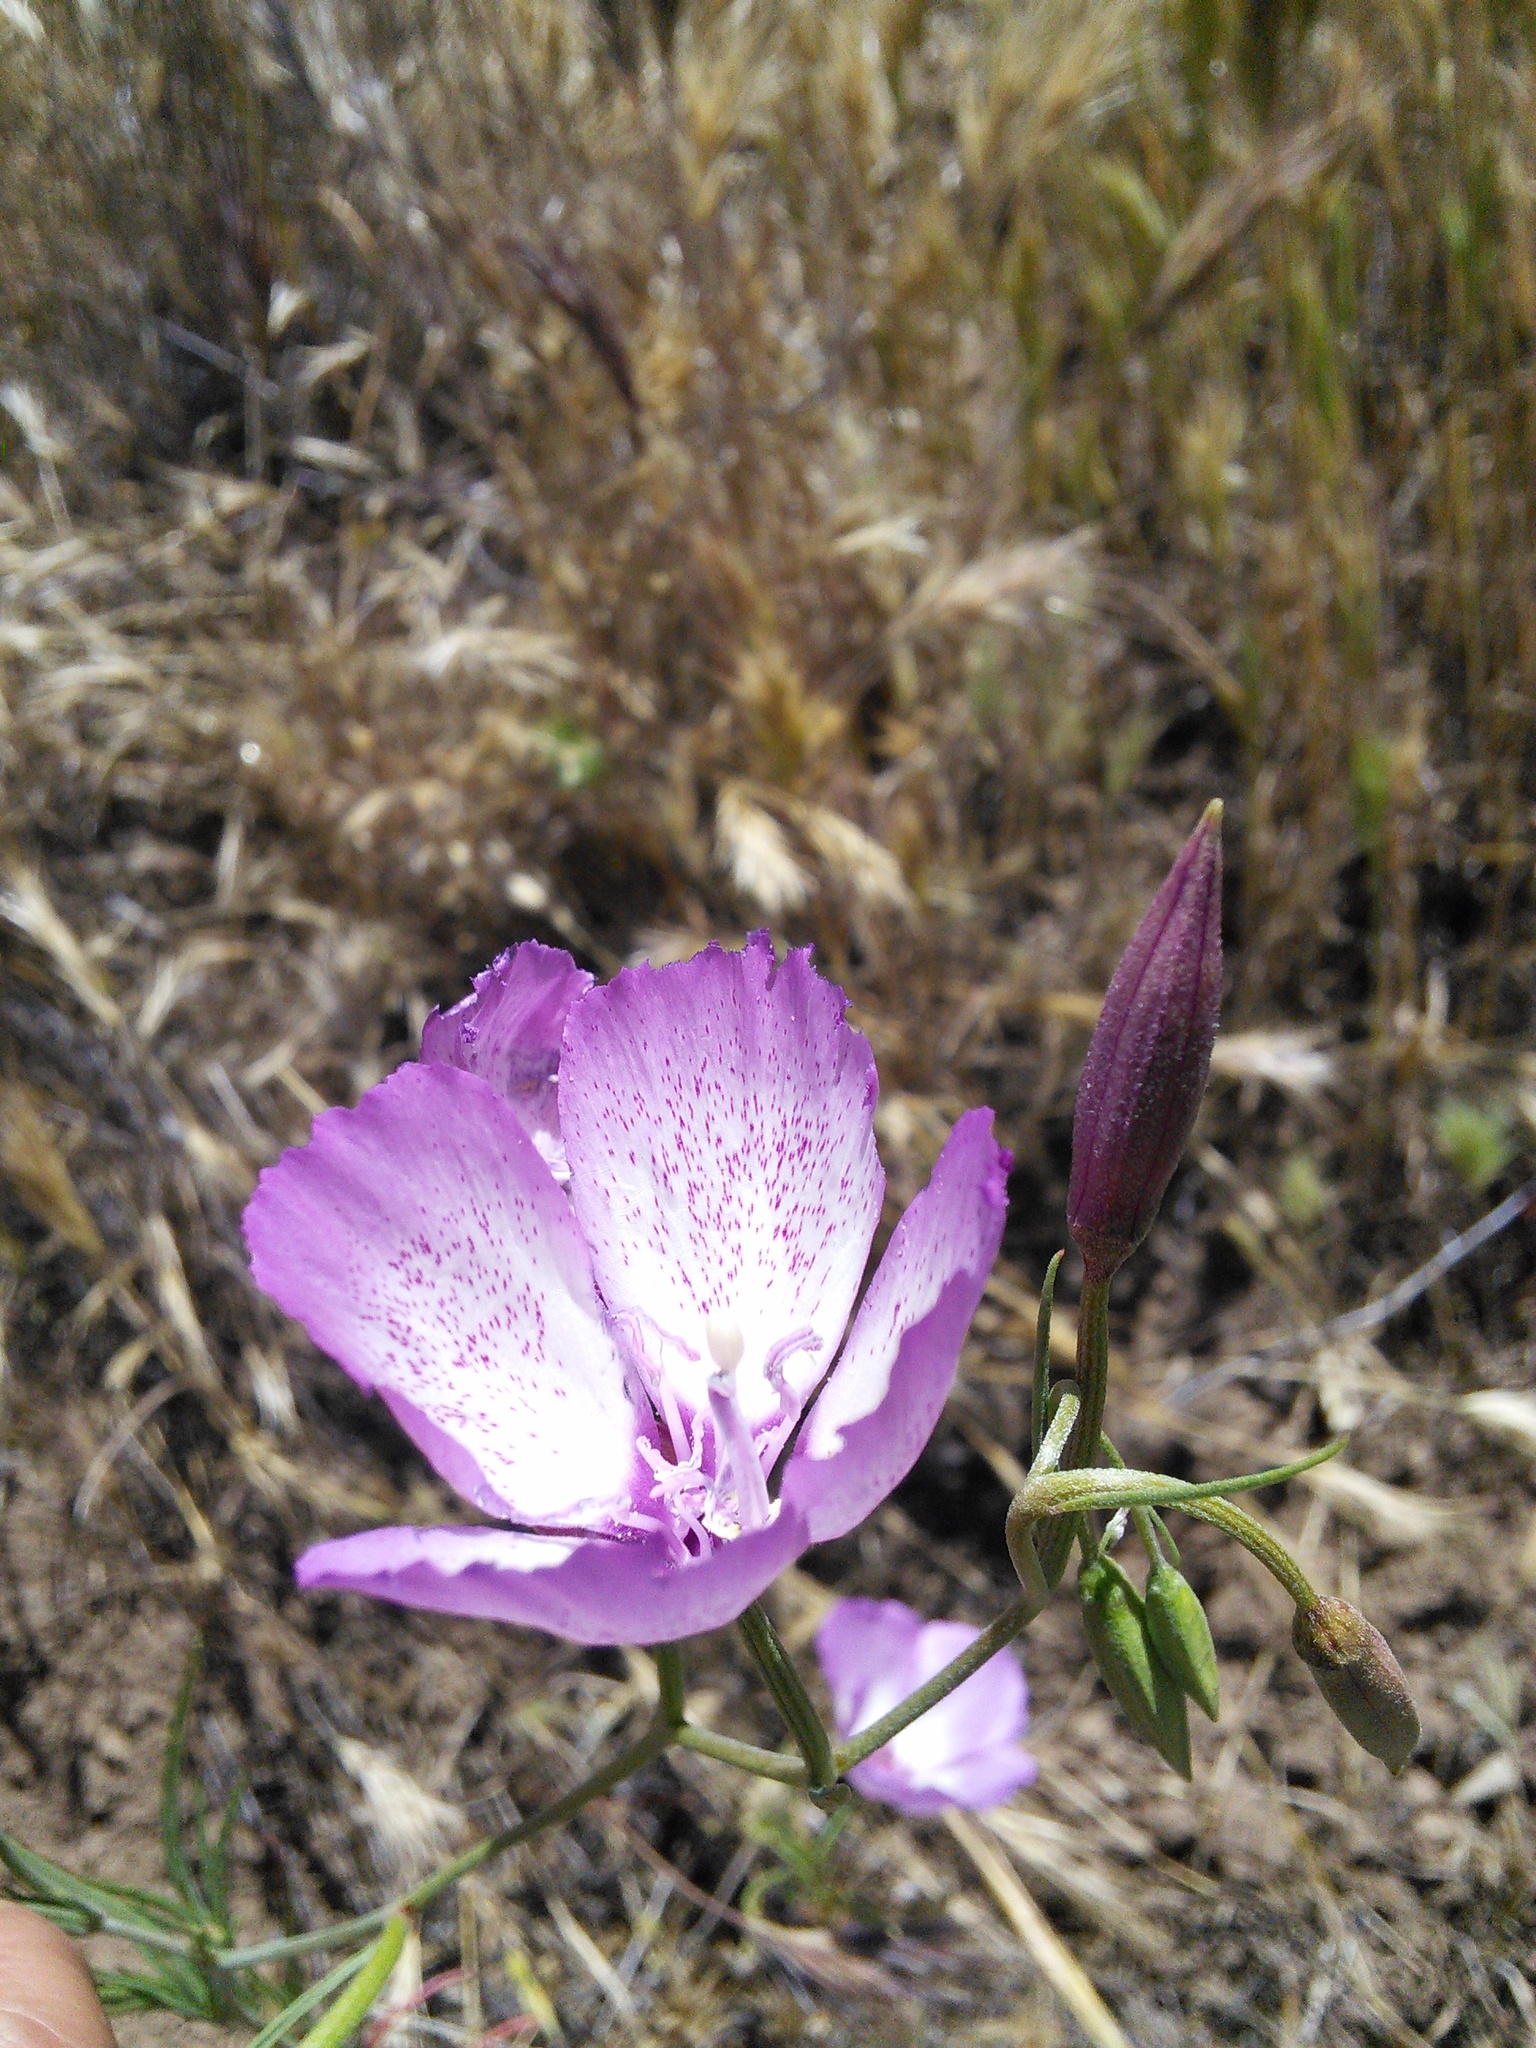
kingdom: Plantae
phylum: Tracheophyta
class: Magnoliopsida
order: Myrtales
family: Onagraceae
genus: Clarkia
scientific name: Clarkia cylindrica
